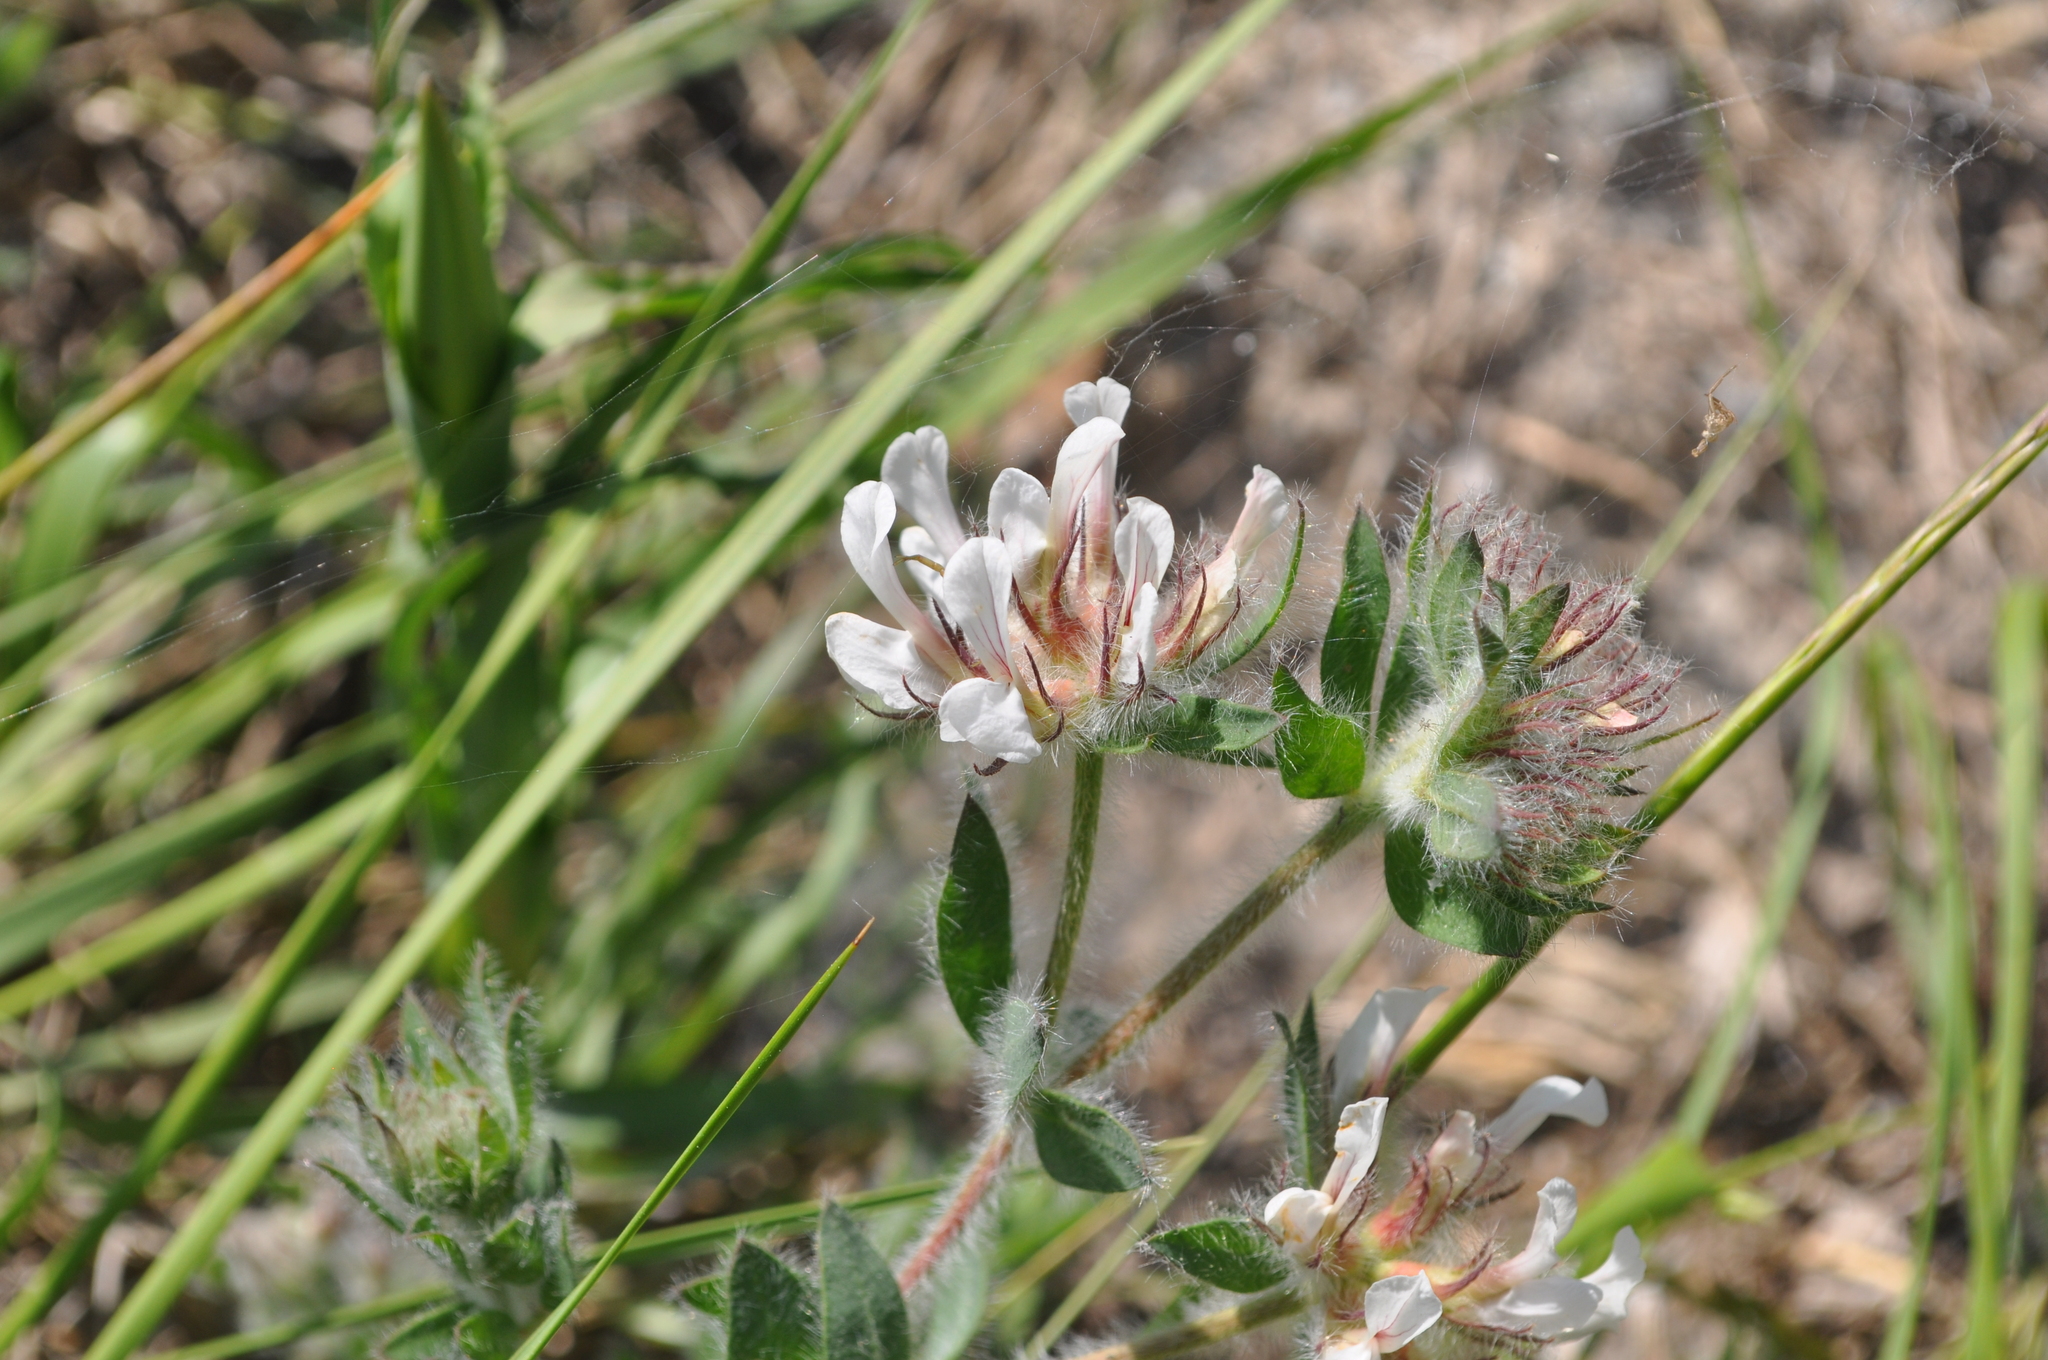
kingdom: Plantae
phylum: Tracheophyta
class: Magnoliopsida
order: Fabales
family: Fabaceae
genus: Lotus
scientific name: Lotus hirsutus
